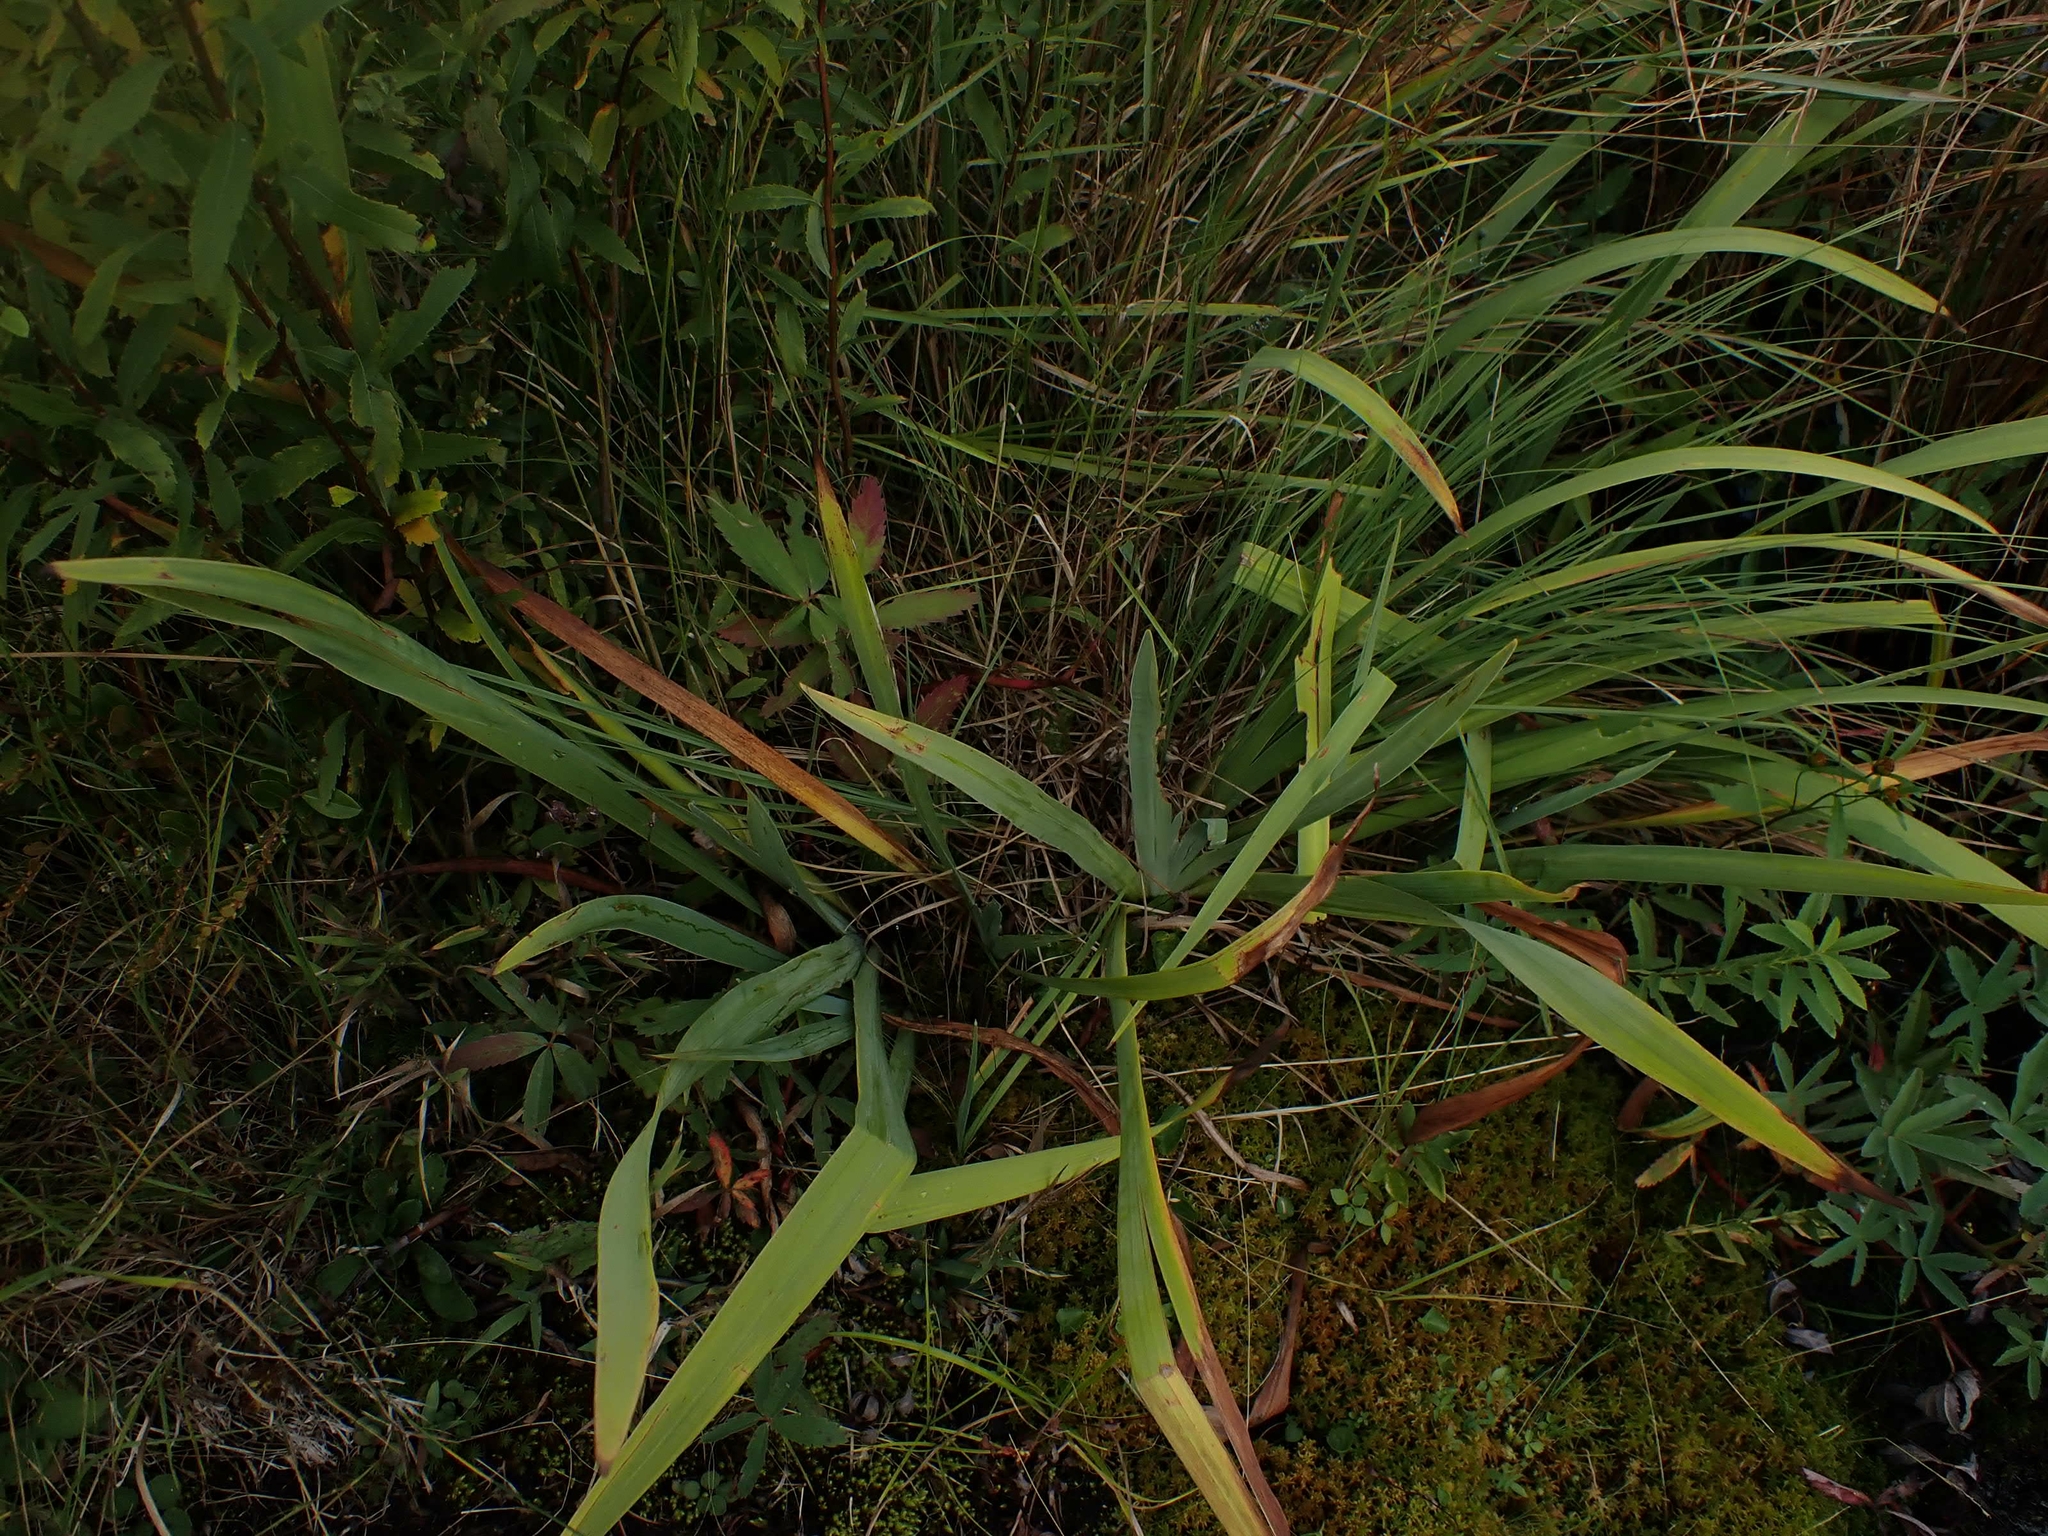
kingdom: Plantae
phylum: Tracheophyta
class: Liliopsida
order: Asparagales
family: Iridaceae
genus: Iris
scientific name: Iris versicolor
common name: Purple iris
